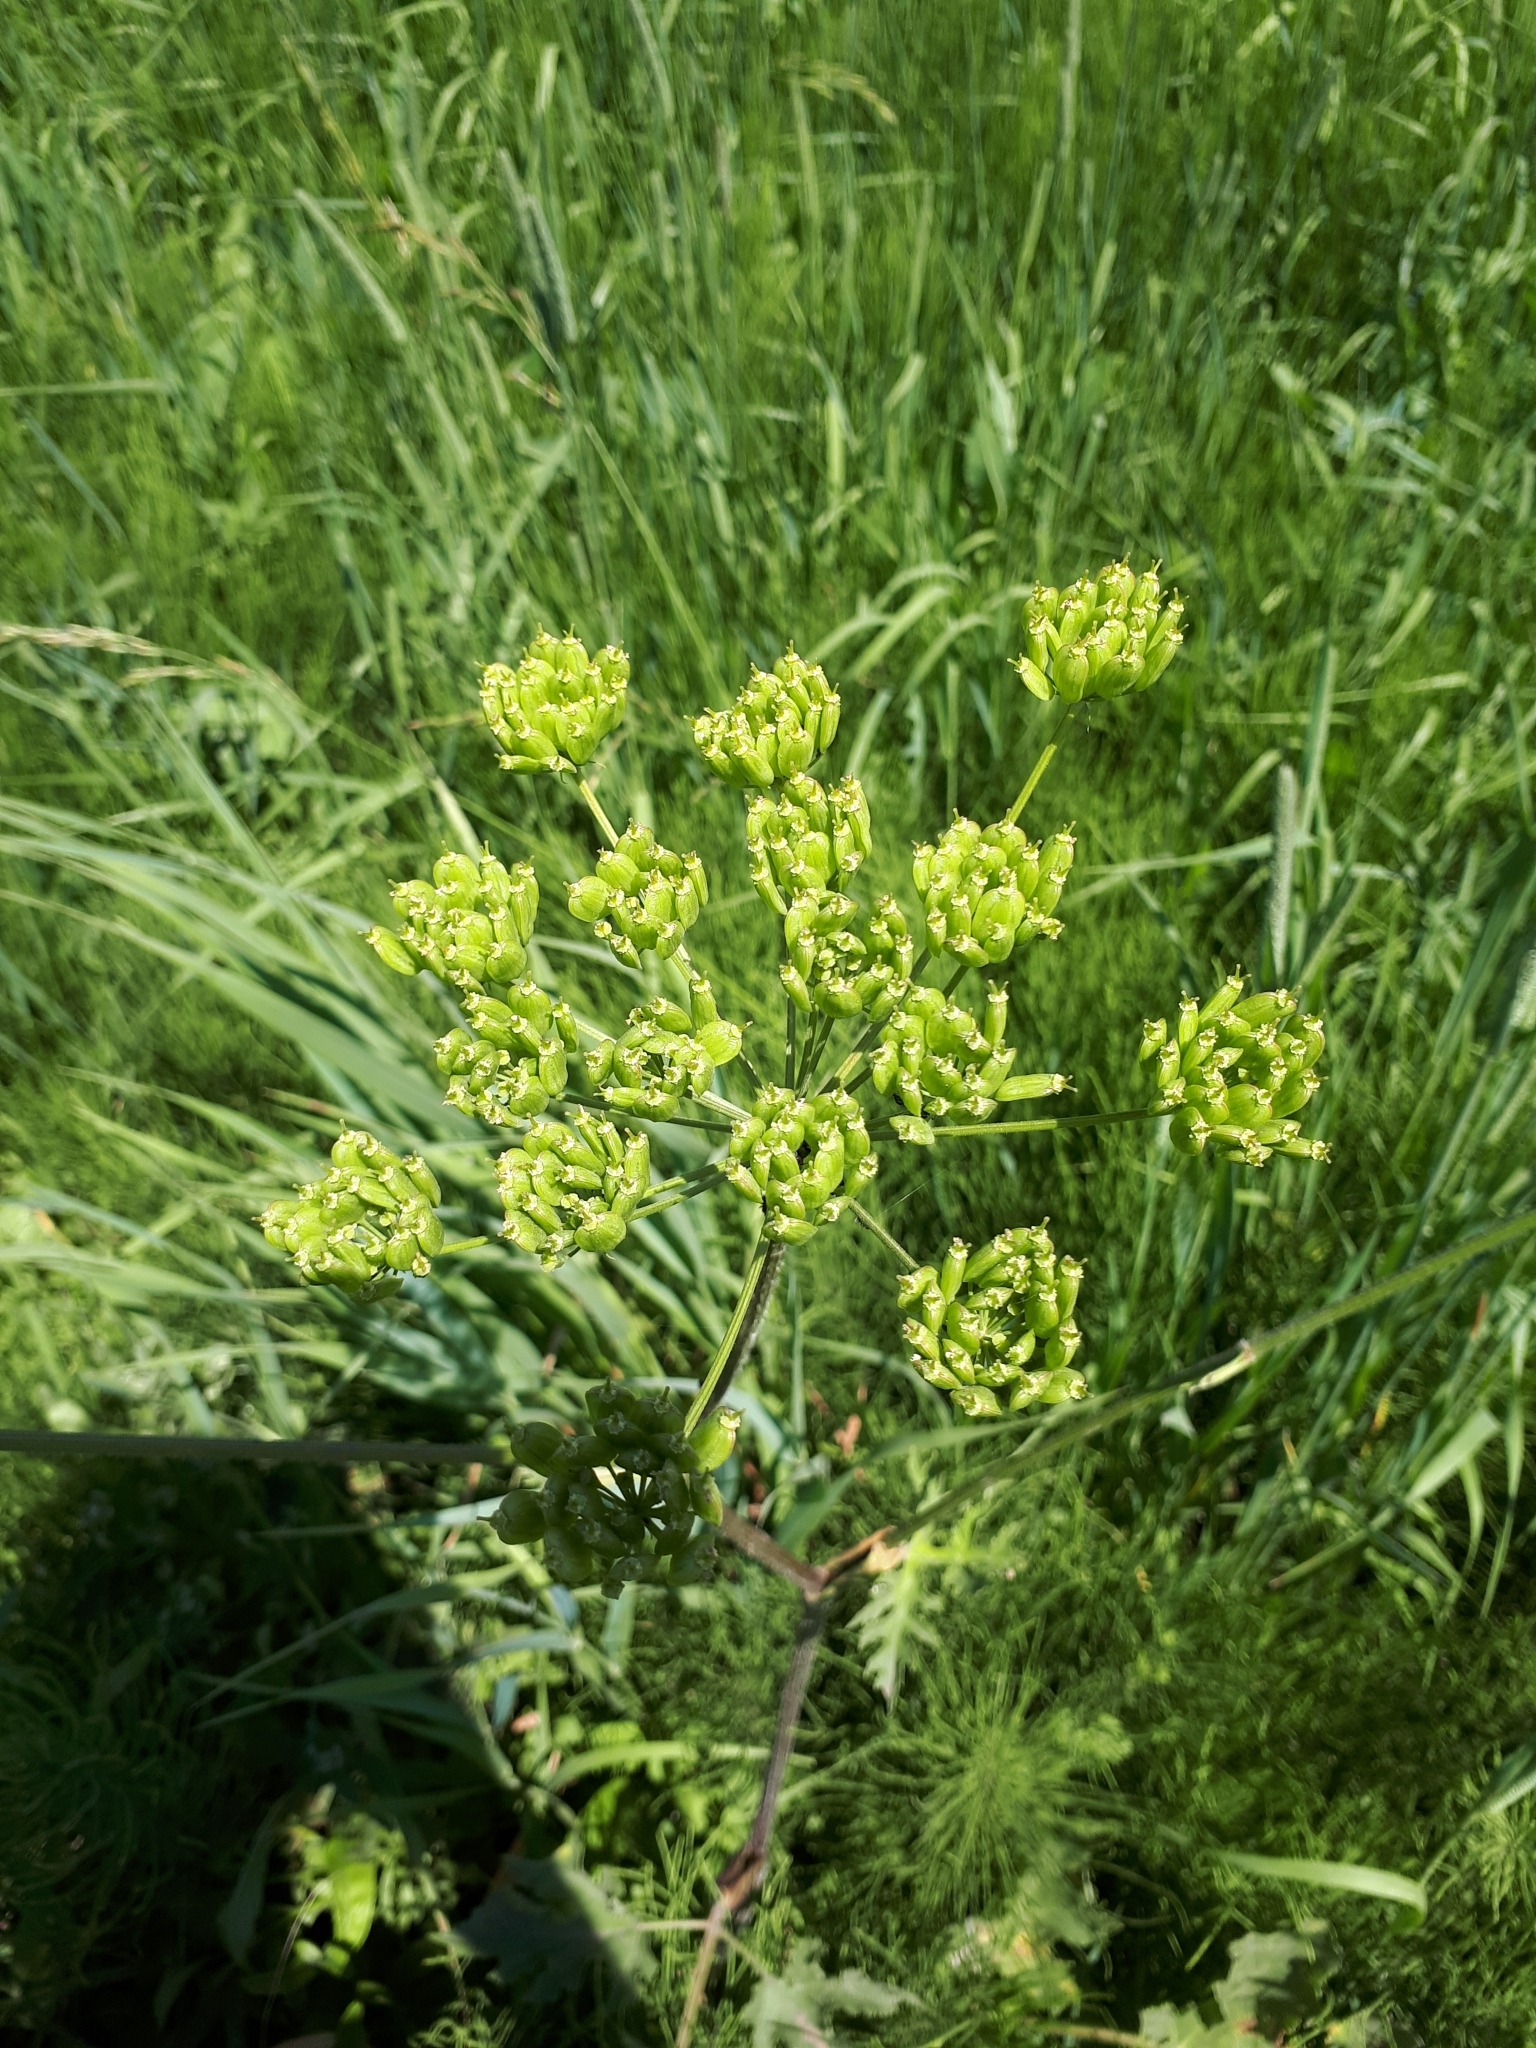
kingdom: Plantae
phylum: Tracheophyta
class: Magnoliopsida
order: Apiales
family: Apiaceae
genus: Heracleum
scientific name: Heracleum sphondylium
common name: Hogweed
